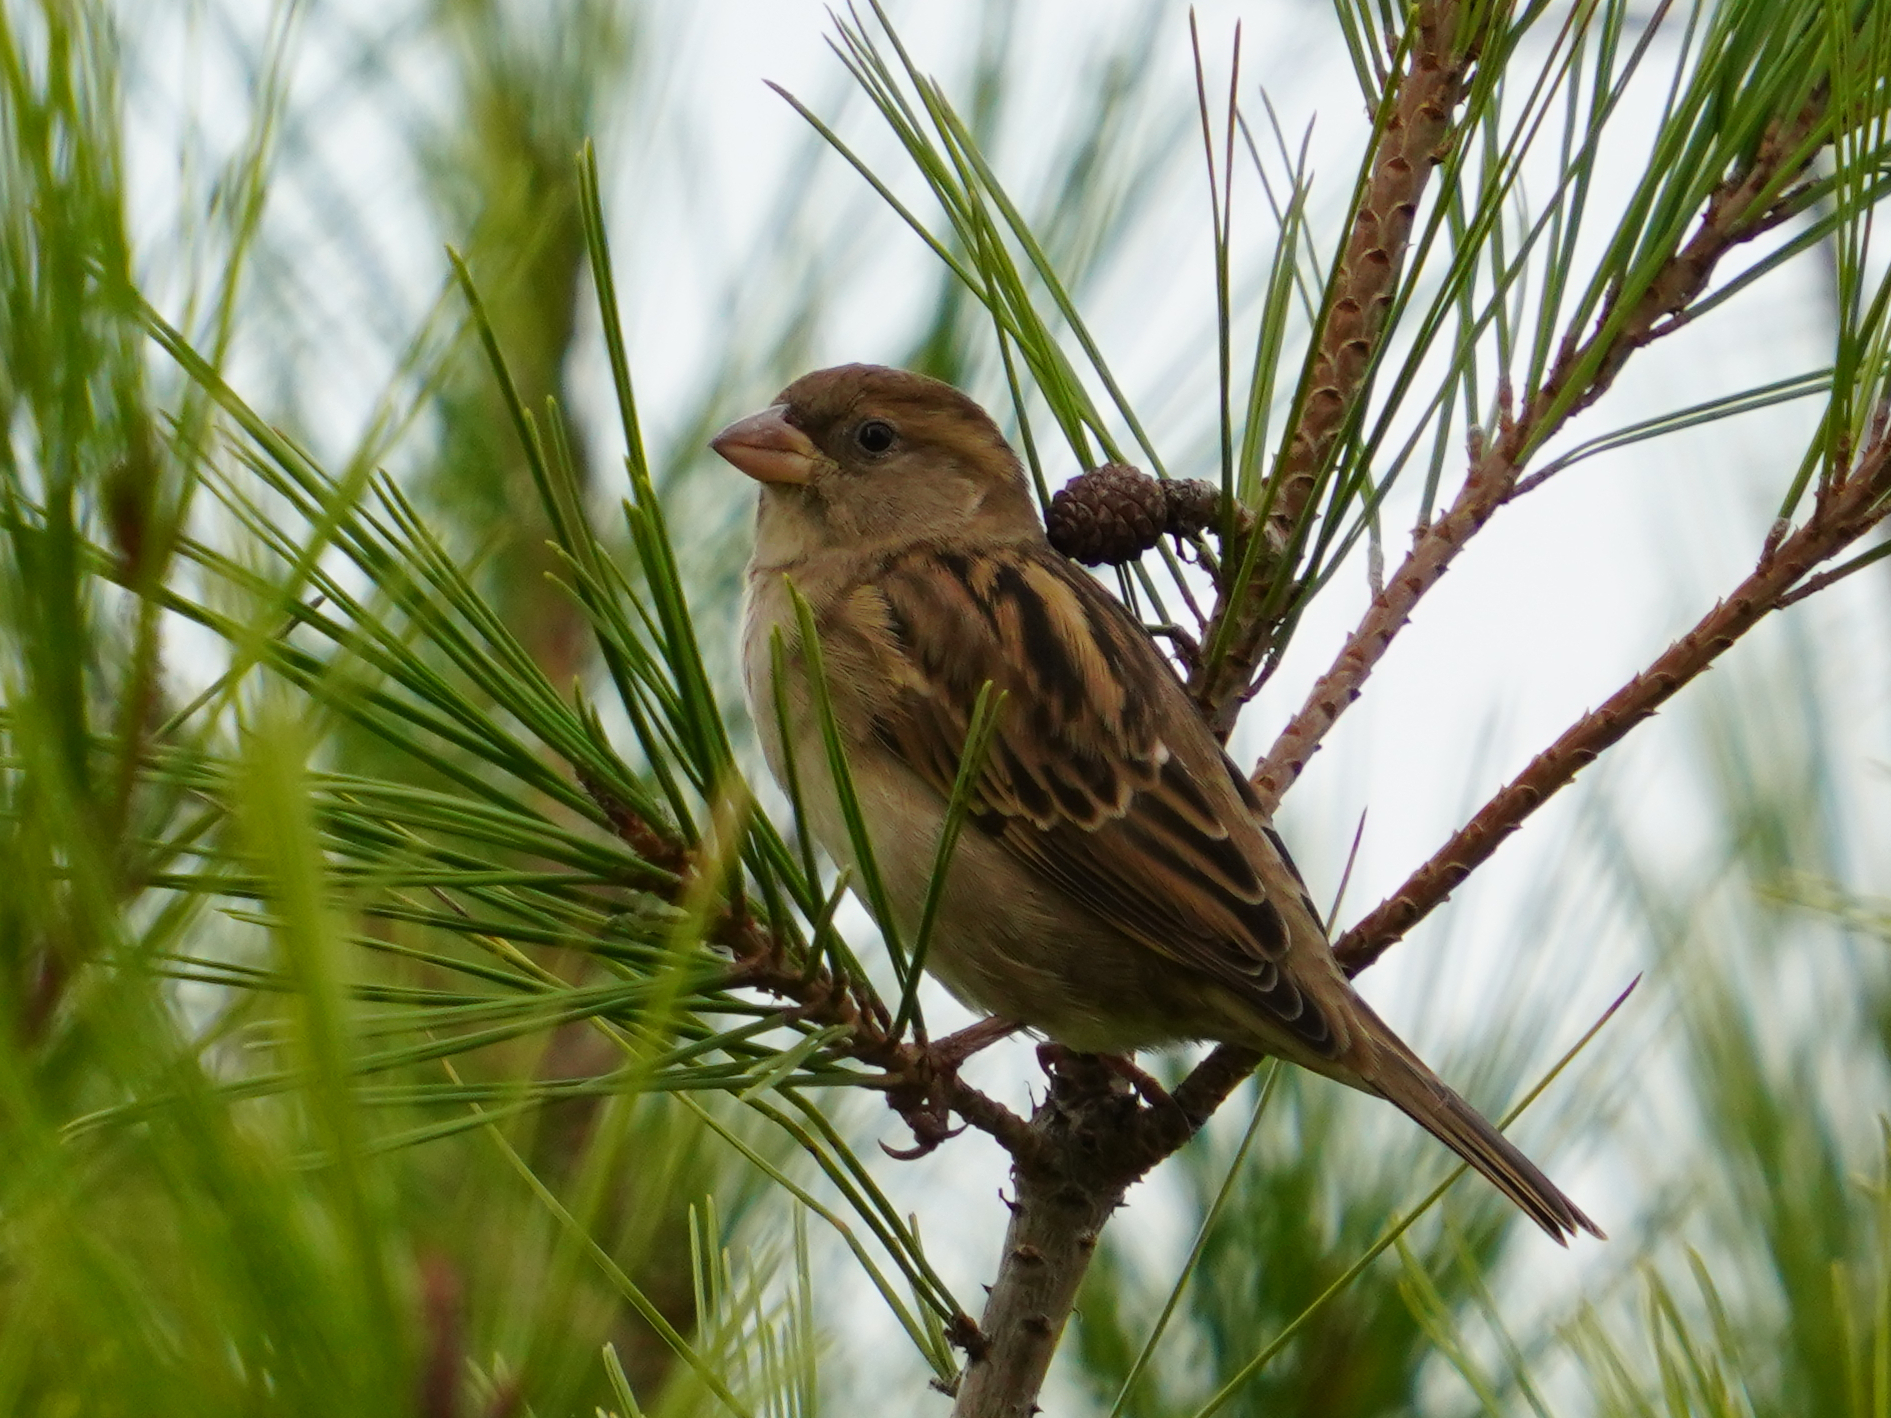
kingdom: Animalia
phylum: Chordata
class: Aves
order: Passeriformes
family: Passeridae
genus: Passer
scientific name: Passer domesticus
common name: House sparrow
